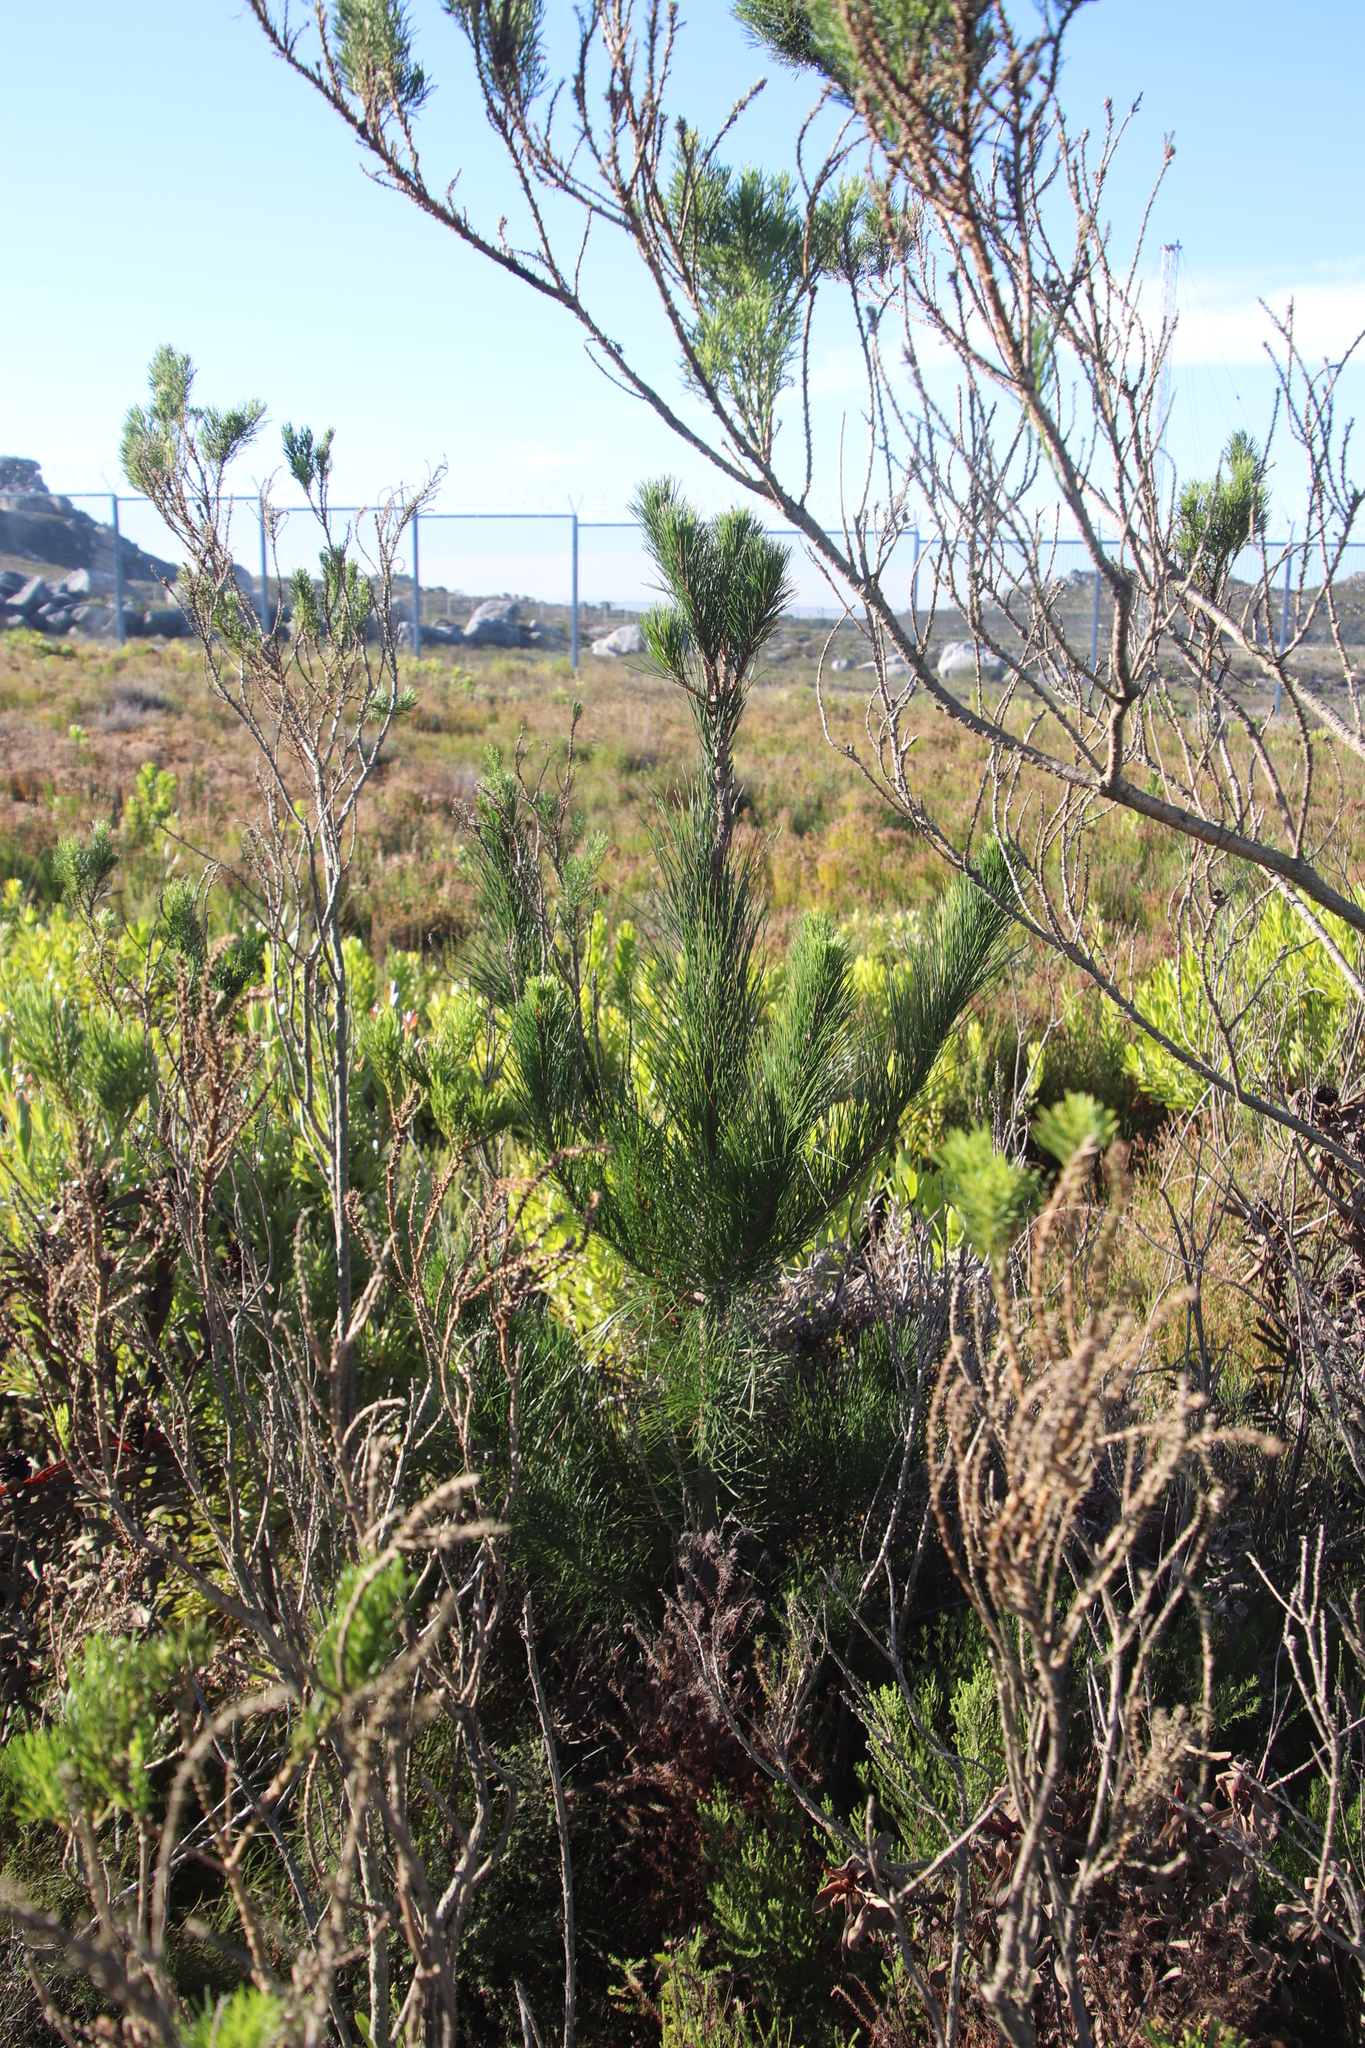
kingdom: Plantae
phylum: Tracheophyta
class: Pinopsida
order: Pinales
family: Pinaceae
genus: Pinus
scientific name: Pinus radiata
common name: Monterey pine
